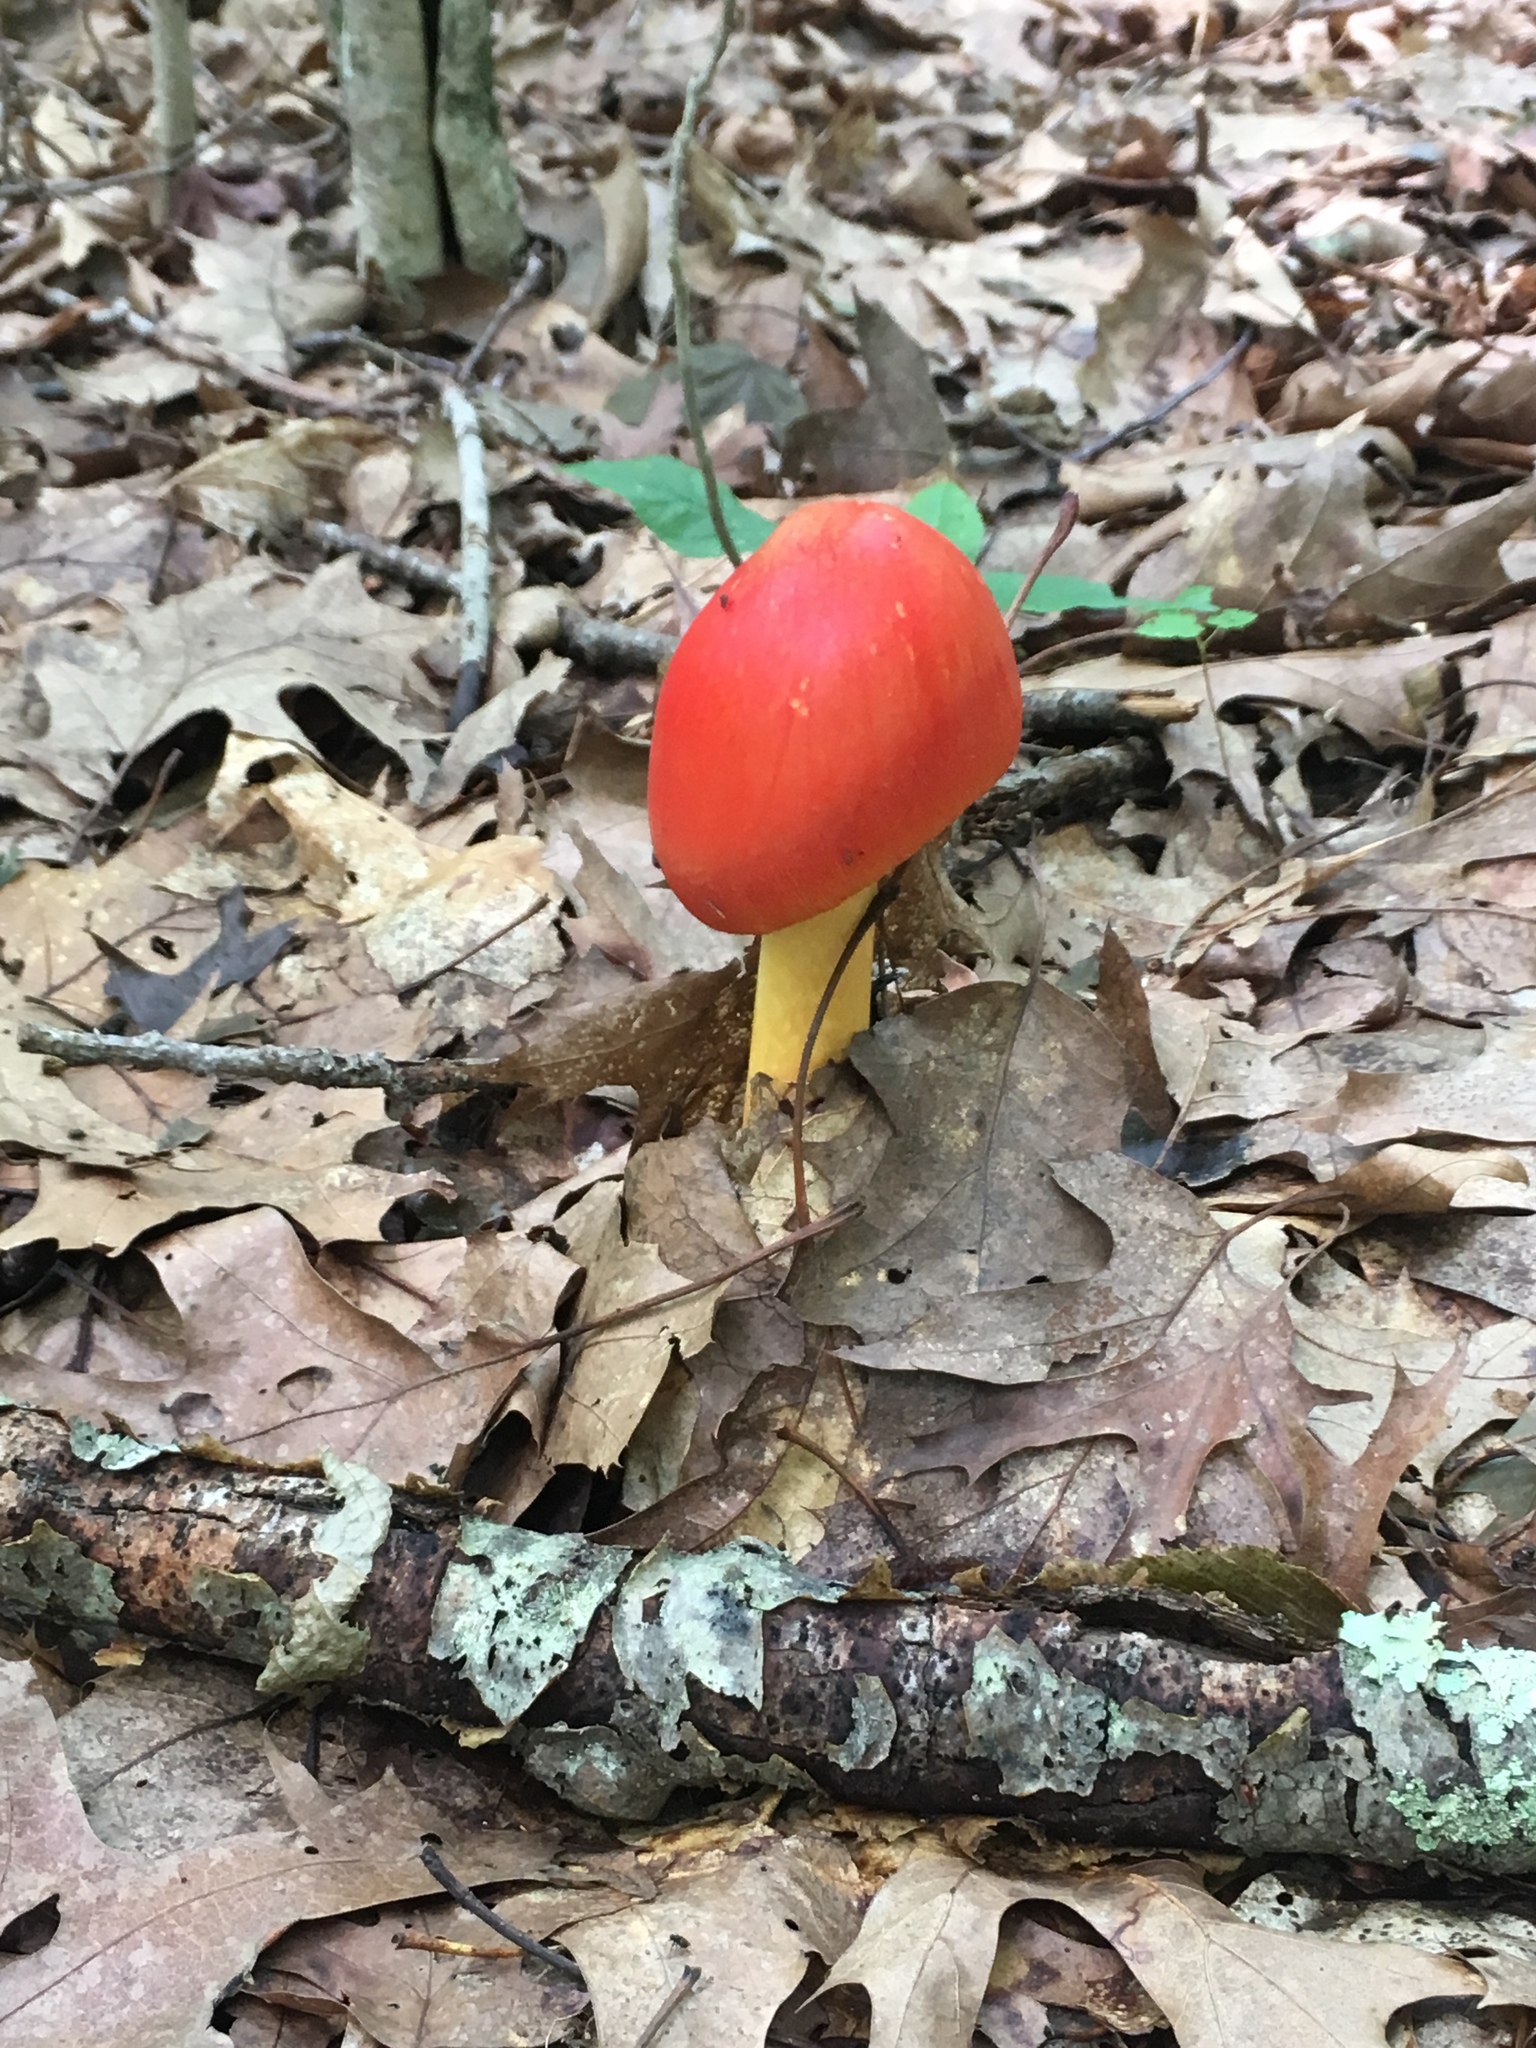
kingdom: Fungi
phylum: Basidiomycota
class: Agaricomycetes
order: Agaricales
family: Amanitaceae
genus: Amanita
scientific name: Amanita jacksonii
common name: Jackson's slender caesar
